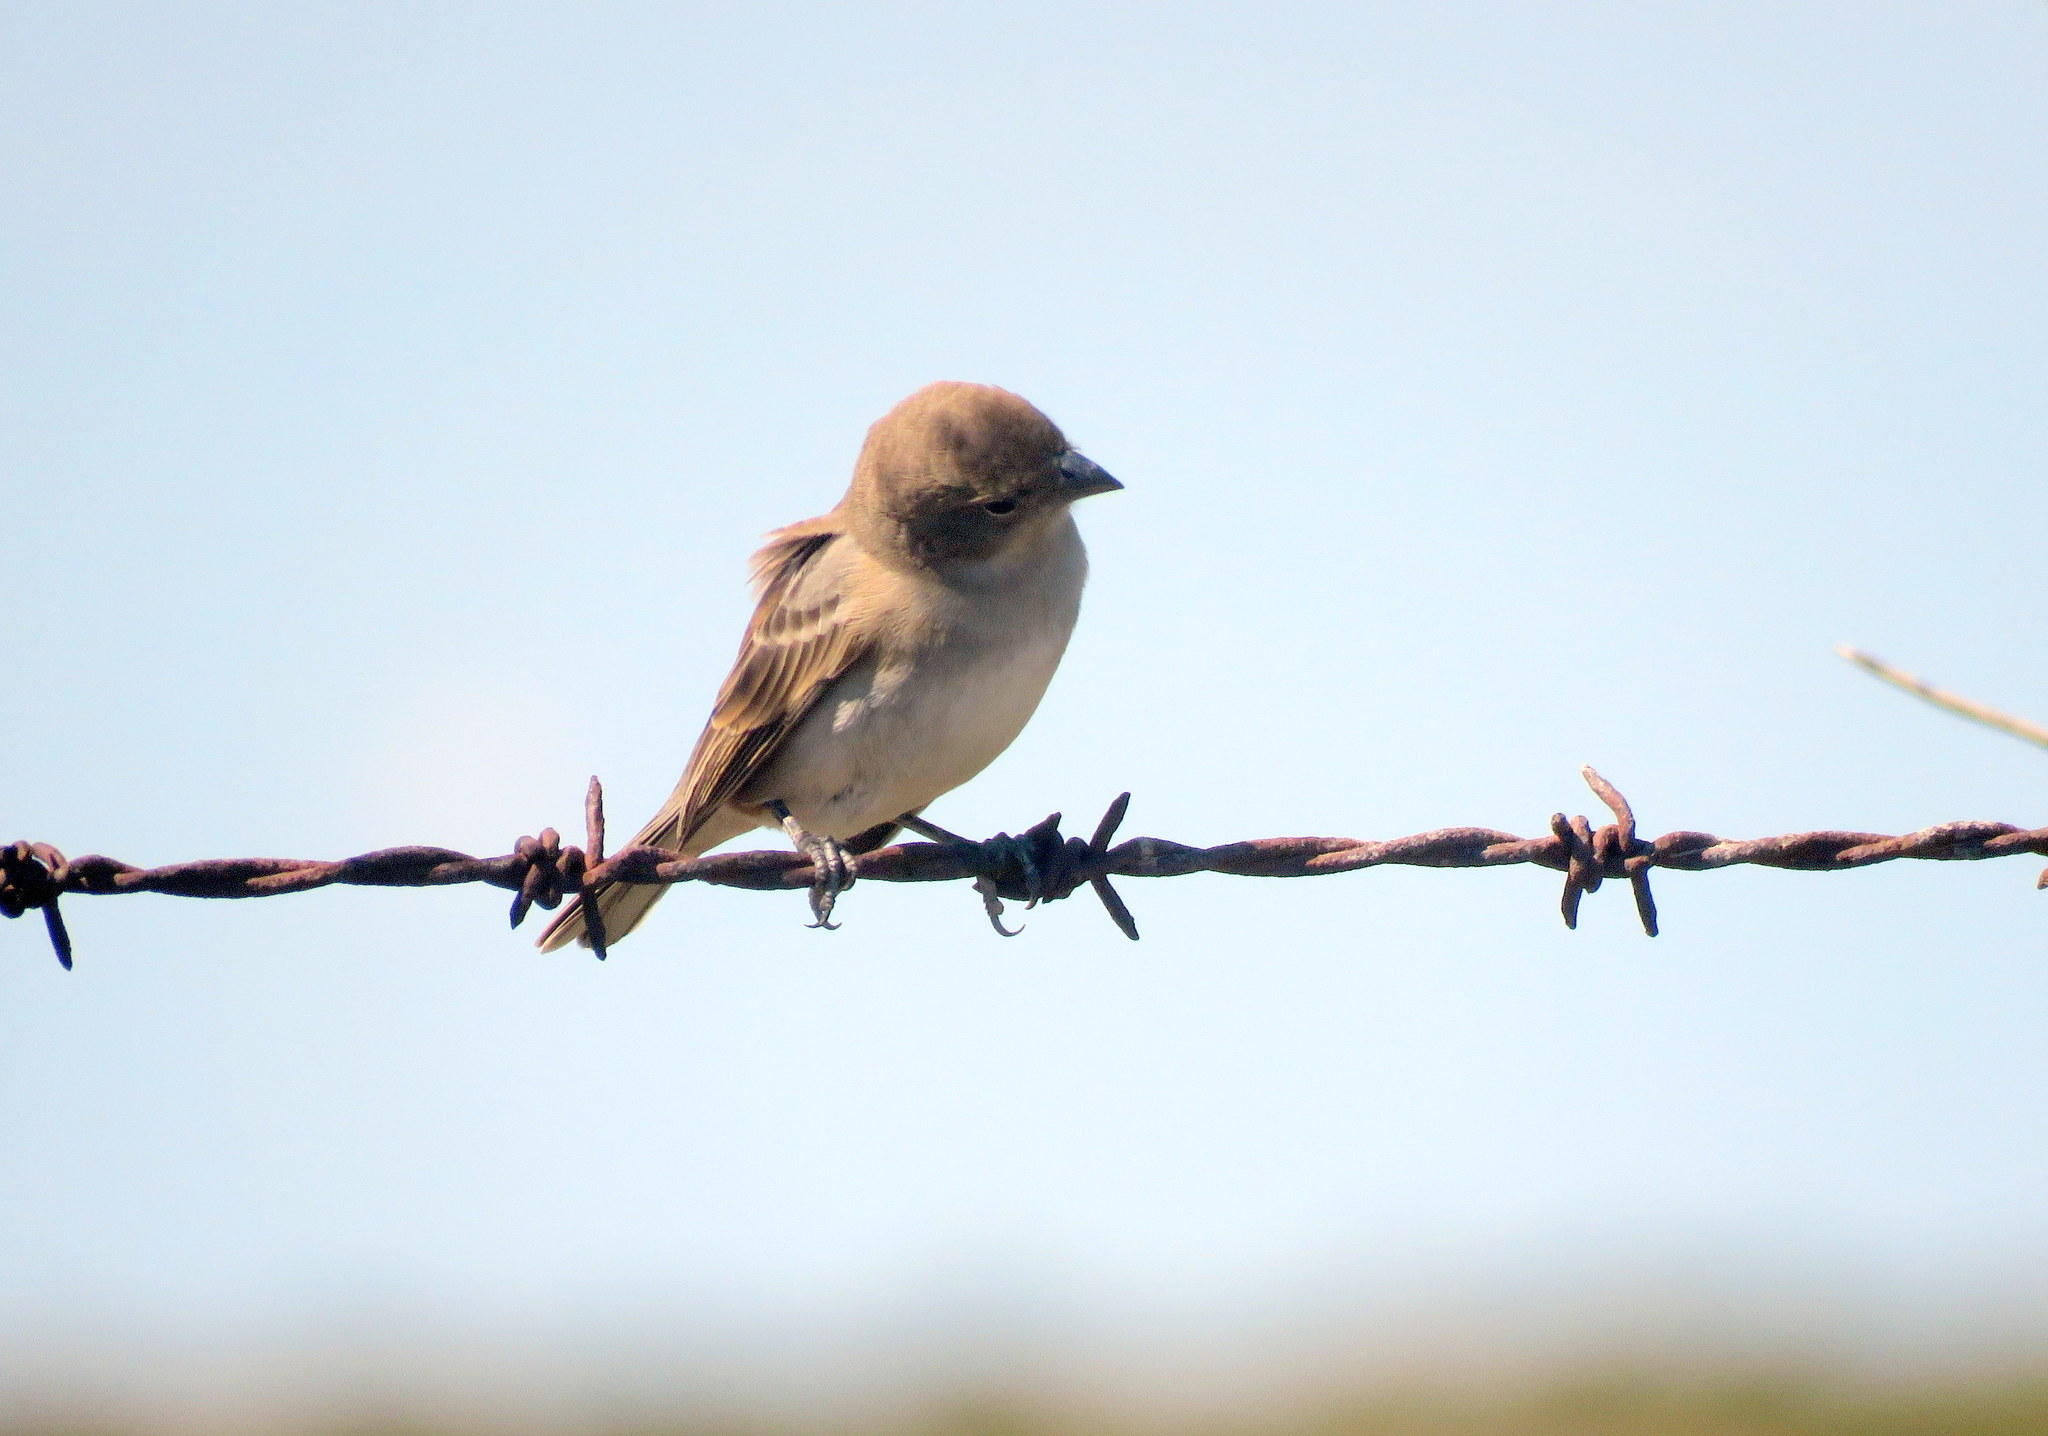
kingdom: Animalia
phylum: Chordata
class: Aves
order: Passeriformes
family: Thraupidae
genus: Diuca
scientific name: Diuca diuca
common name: Common diuca finch
